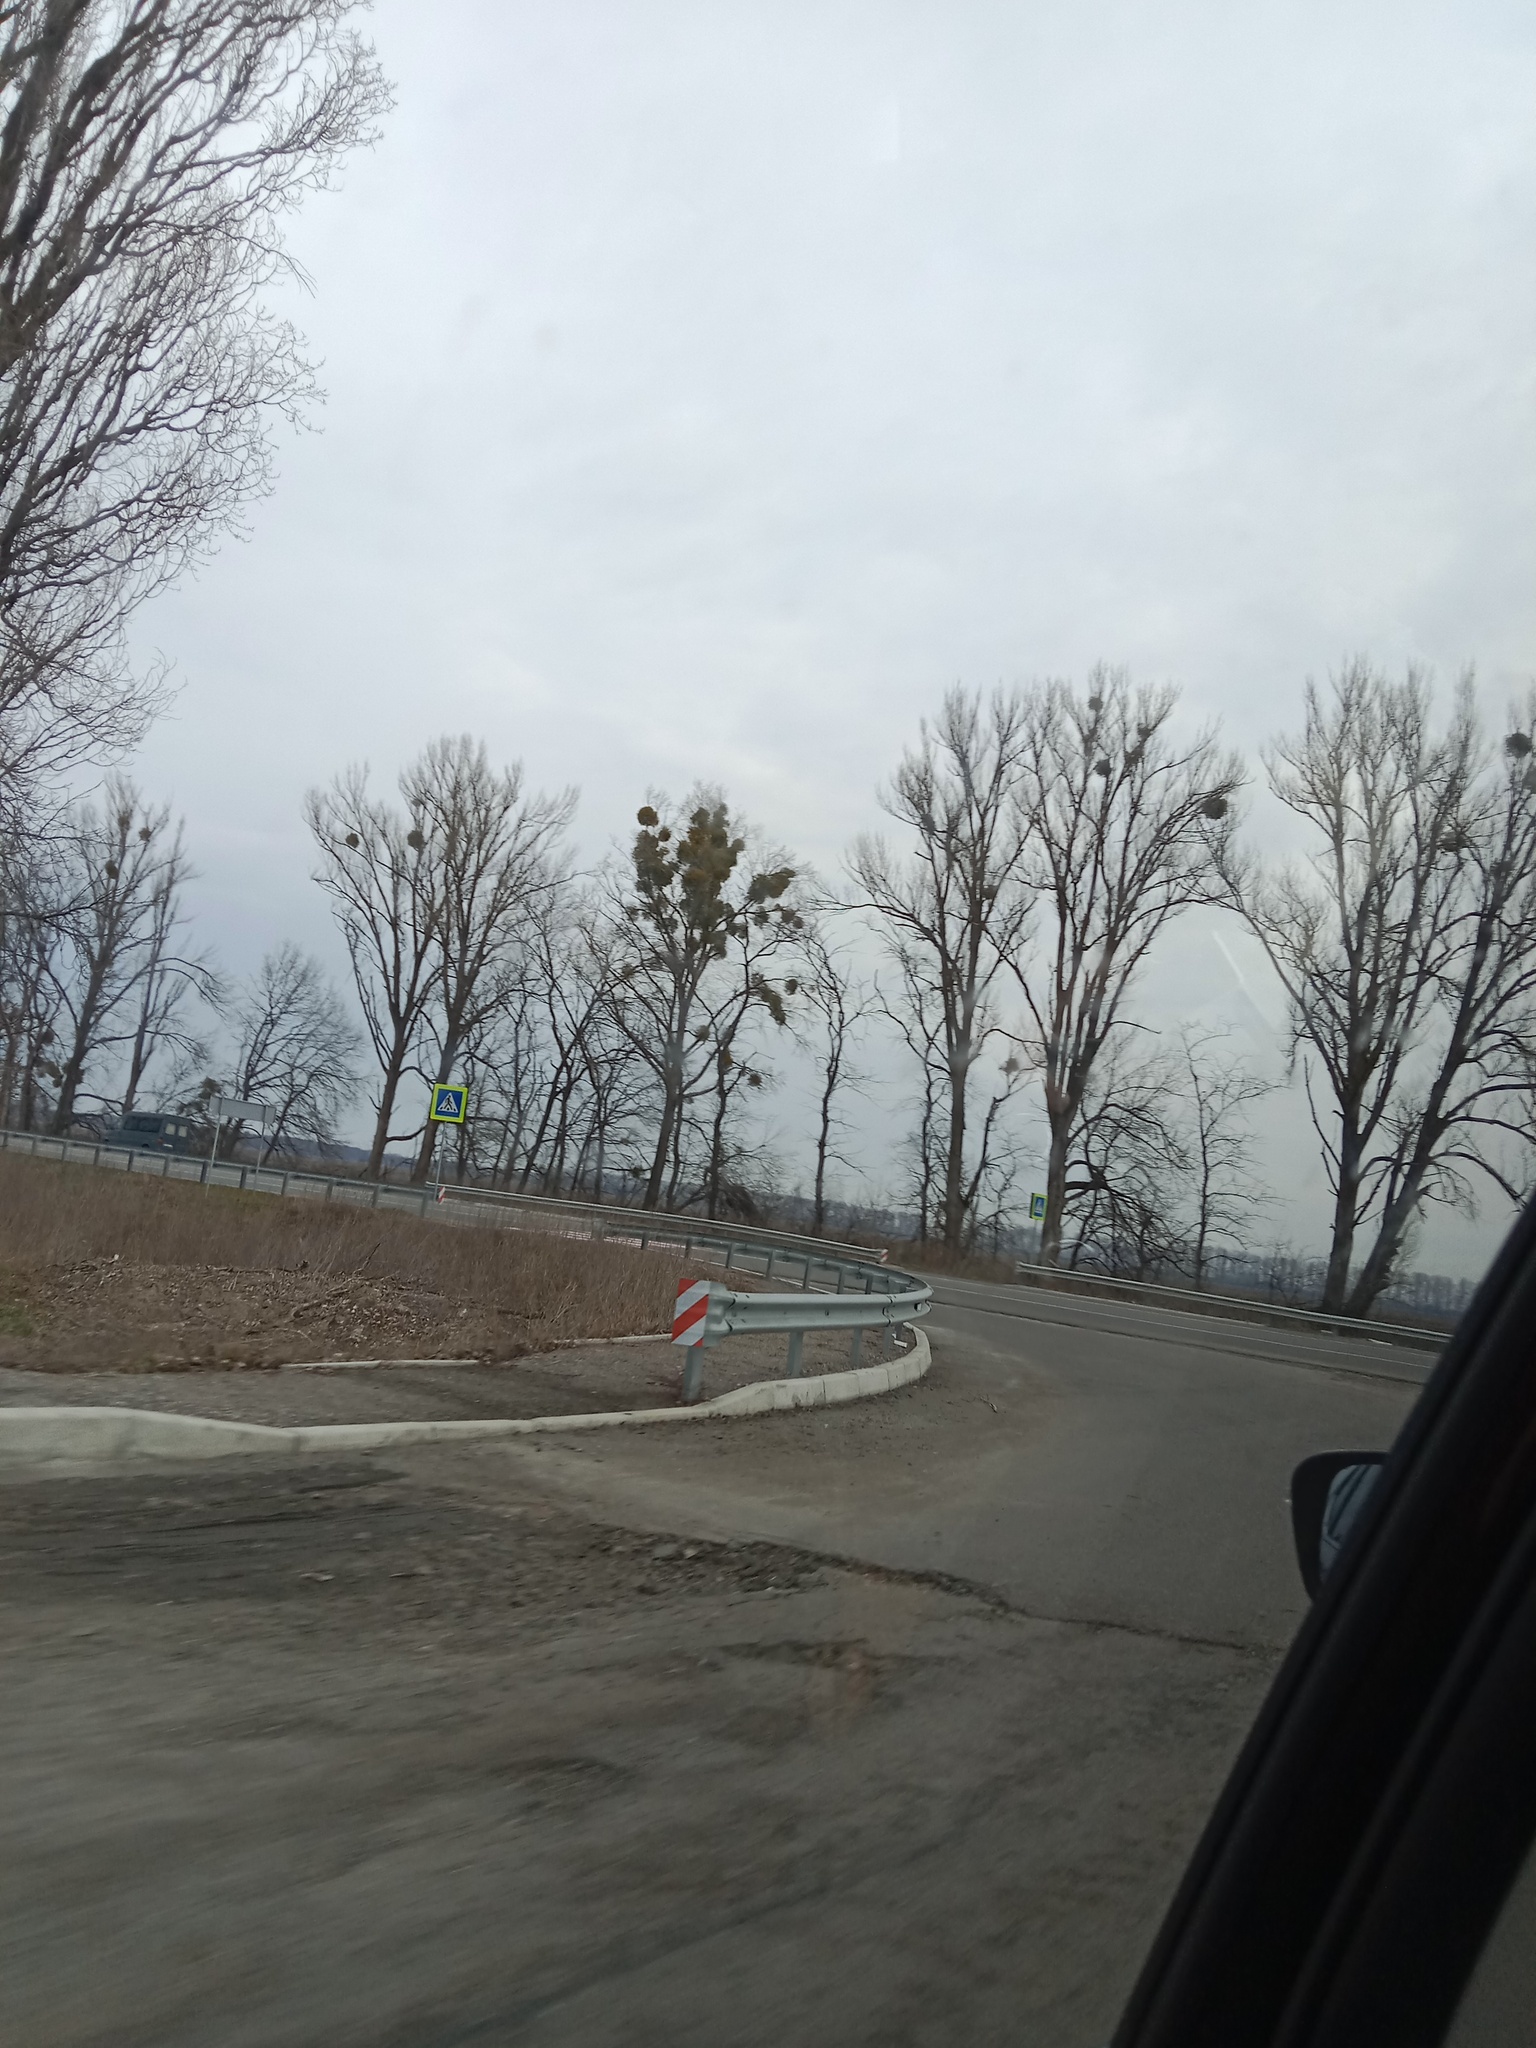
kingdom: Plantae
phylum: Tracheophyta
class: Magnoliopsida
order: Santalales
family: Viscaceae
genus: Viscum
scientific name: Viscum album
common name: Mistletoe
